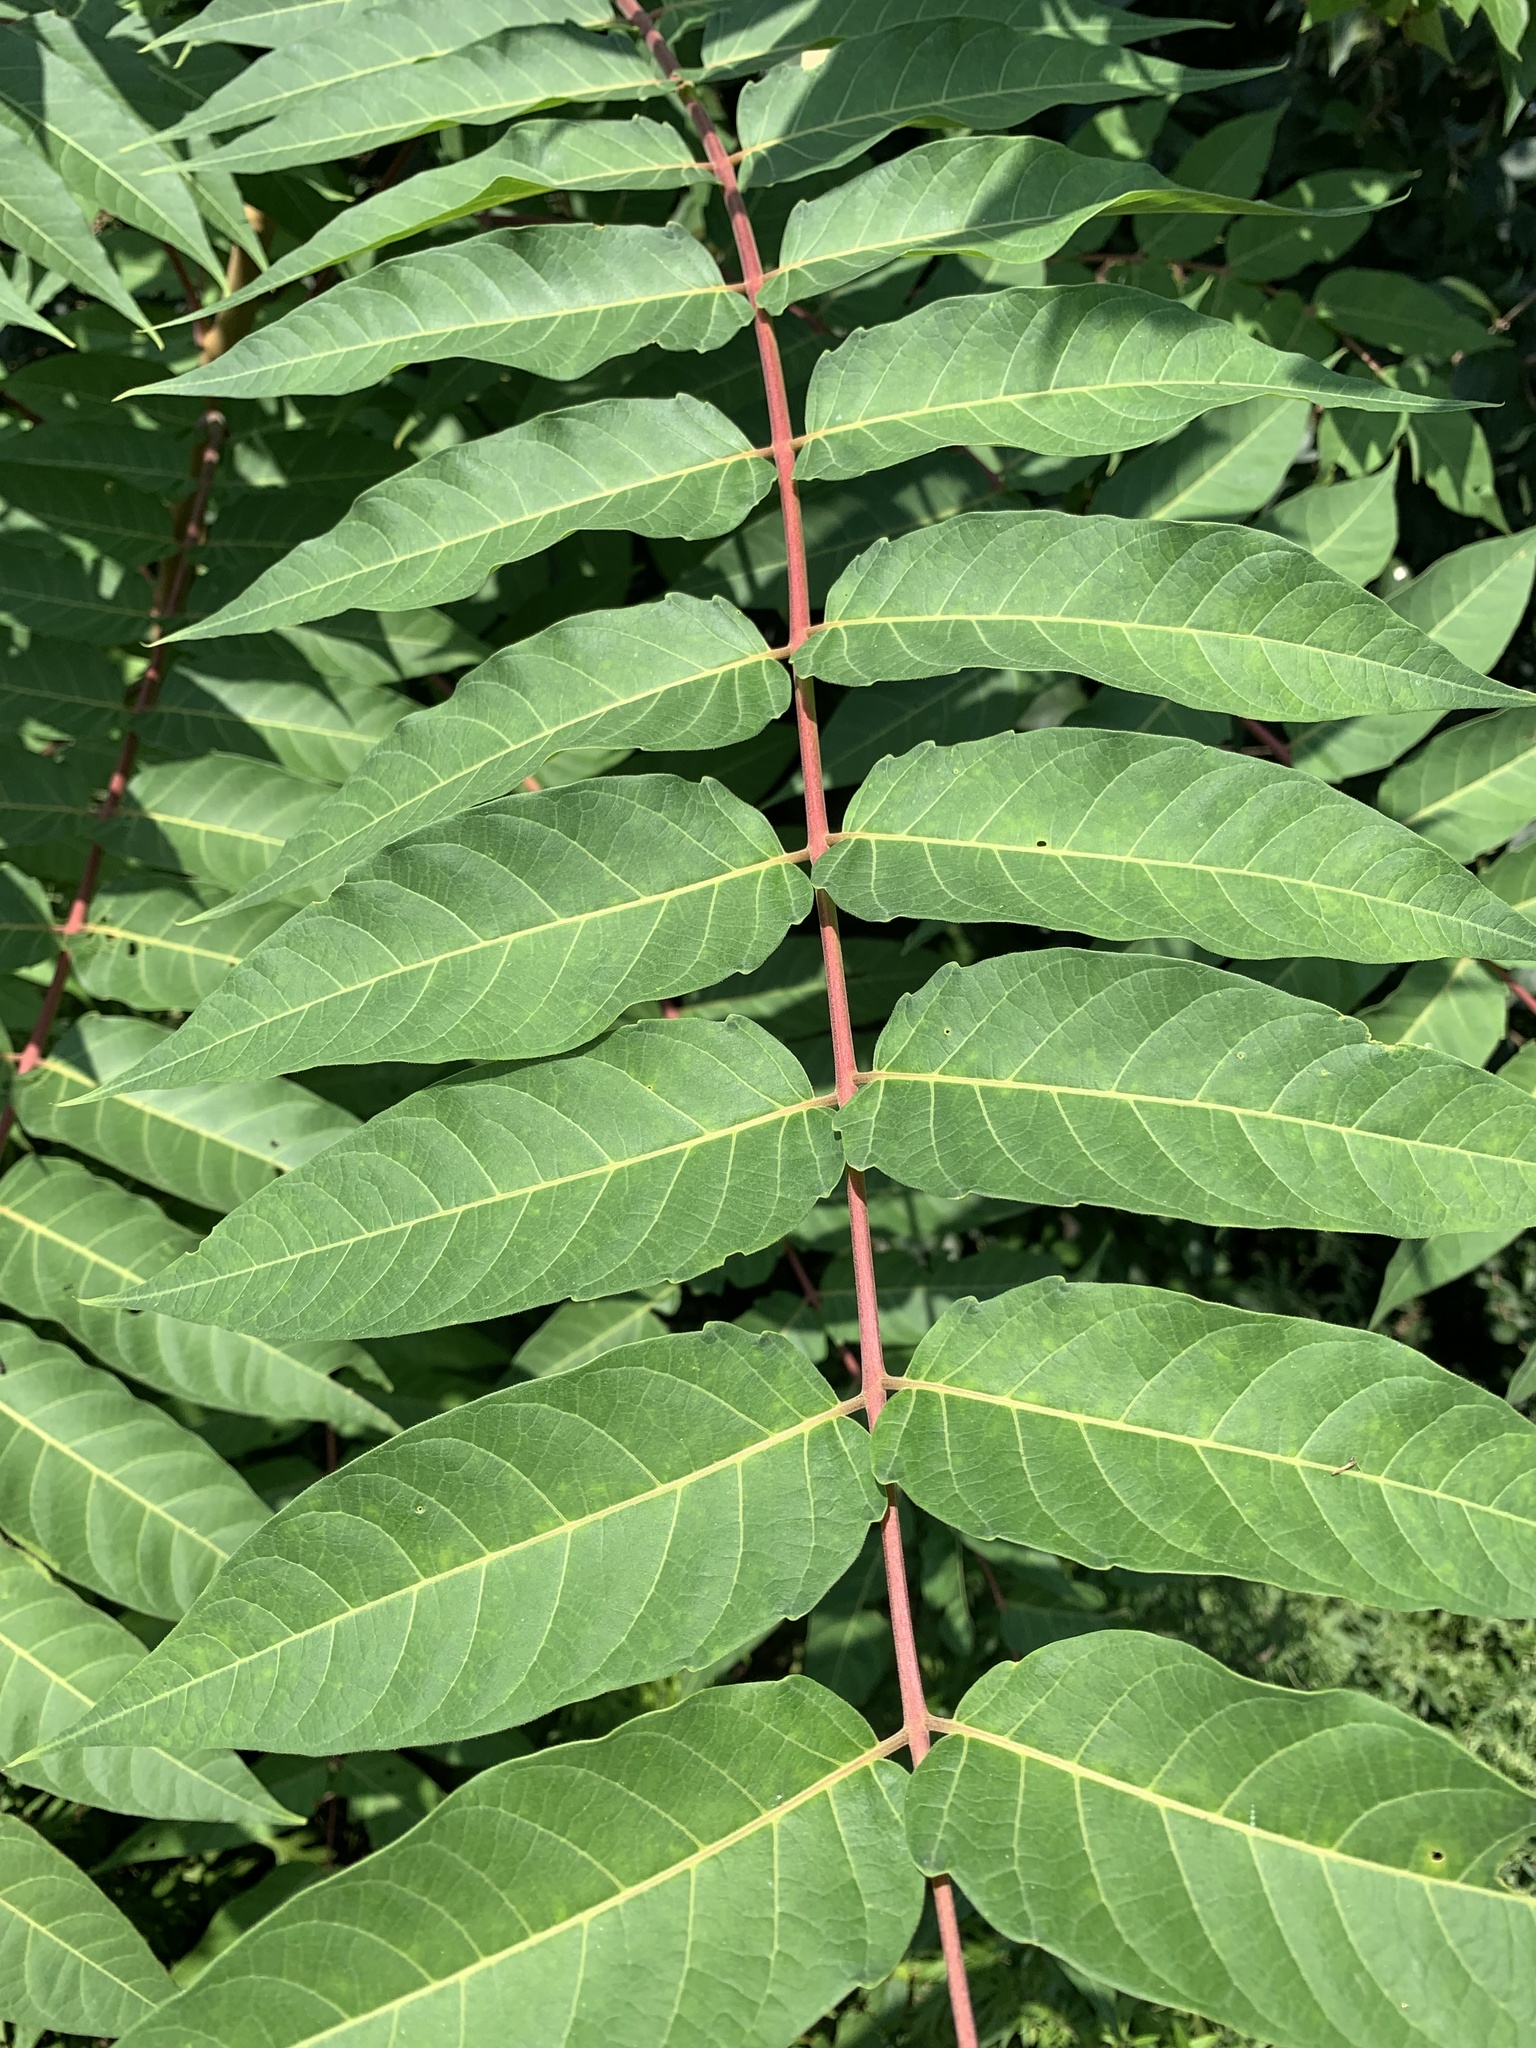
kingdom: Plantae
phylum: Tracheophyta
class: Magnoliopsida
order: Sapindales
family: Simaroubaceae
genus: Ailanthus
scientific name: Ailanthus altissima
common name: Tree-of-heaven
